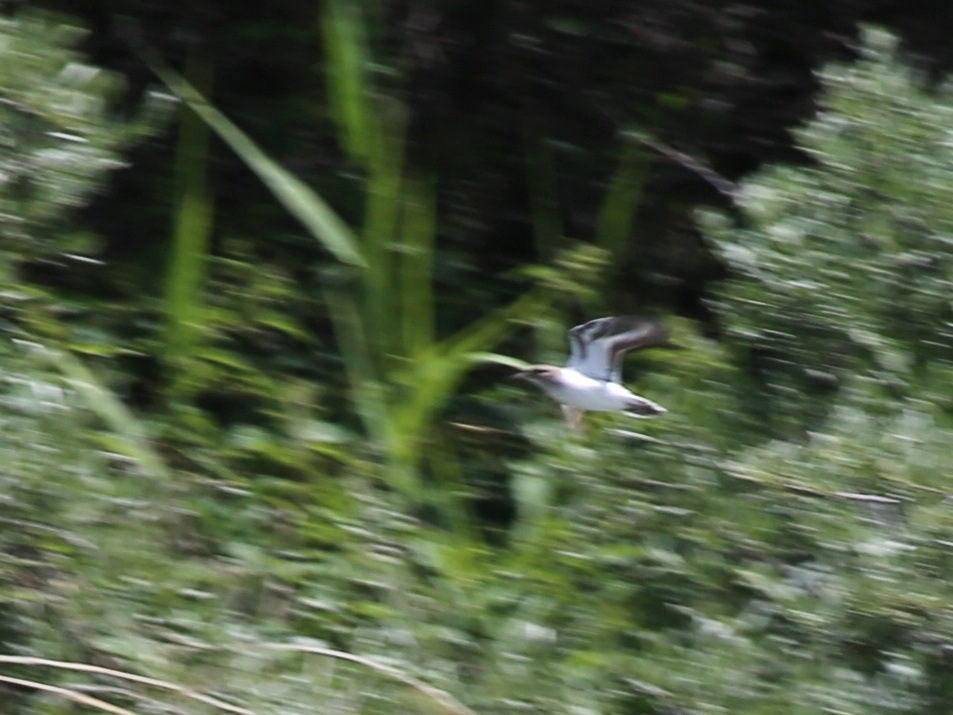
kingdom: Animalia
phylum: Chordata
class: Aves
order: Charadriiformes
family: Scolopacidae
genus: Actitis
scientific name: Actitis hypoleucos
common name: Common sandpiper
